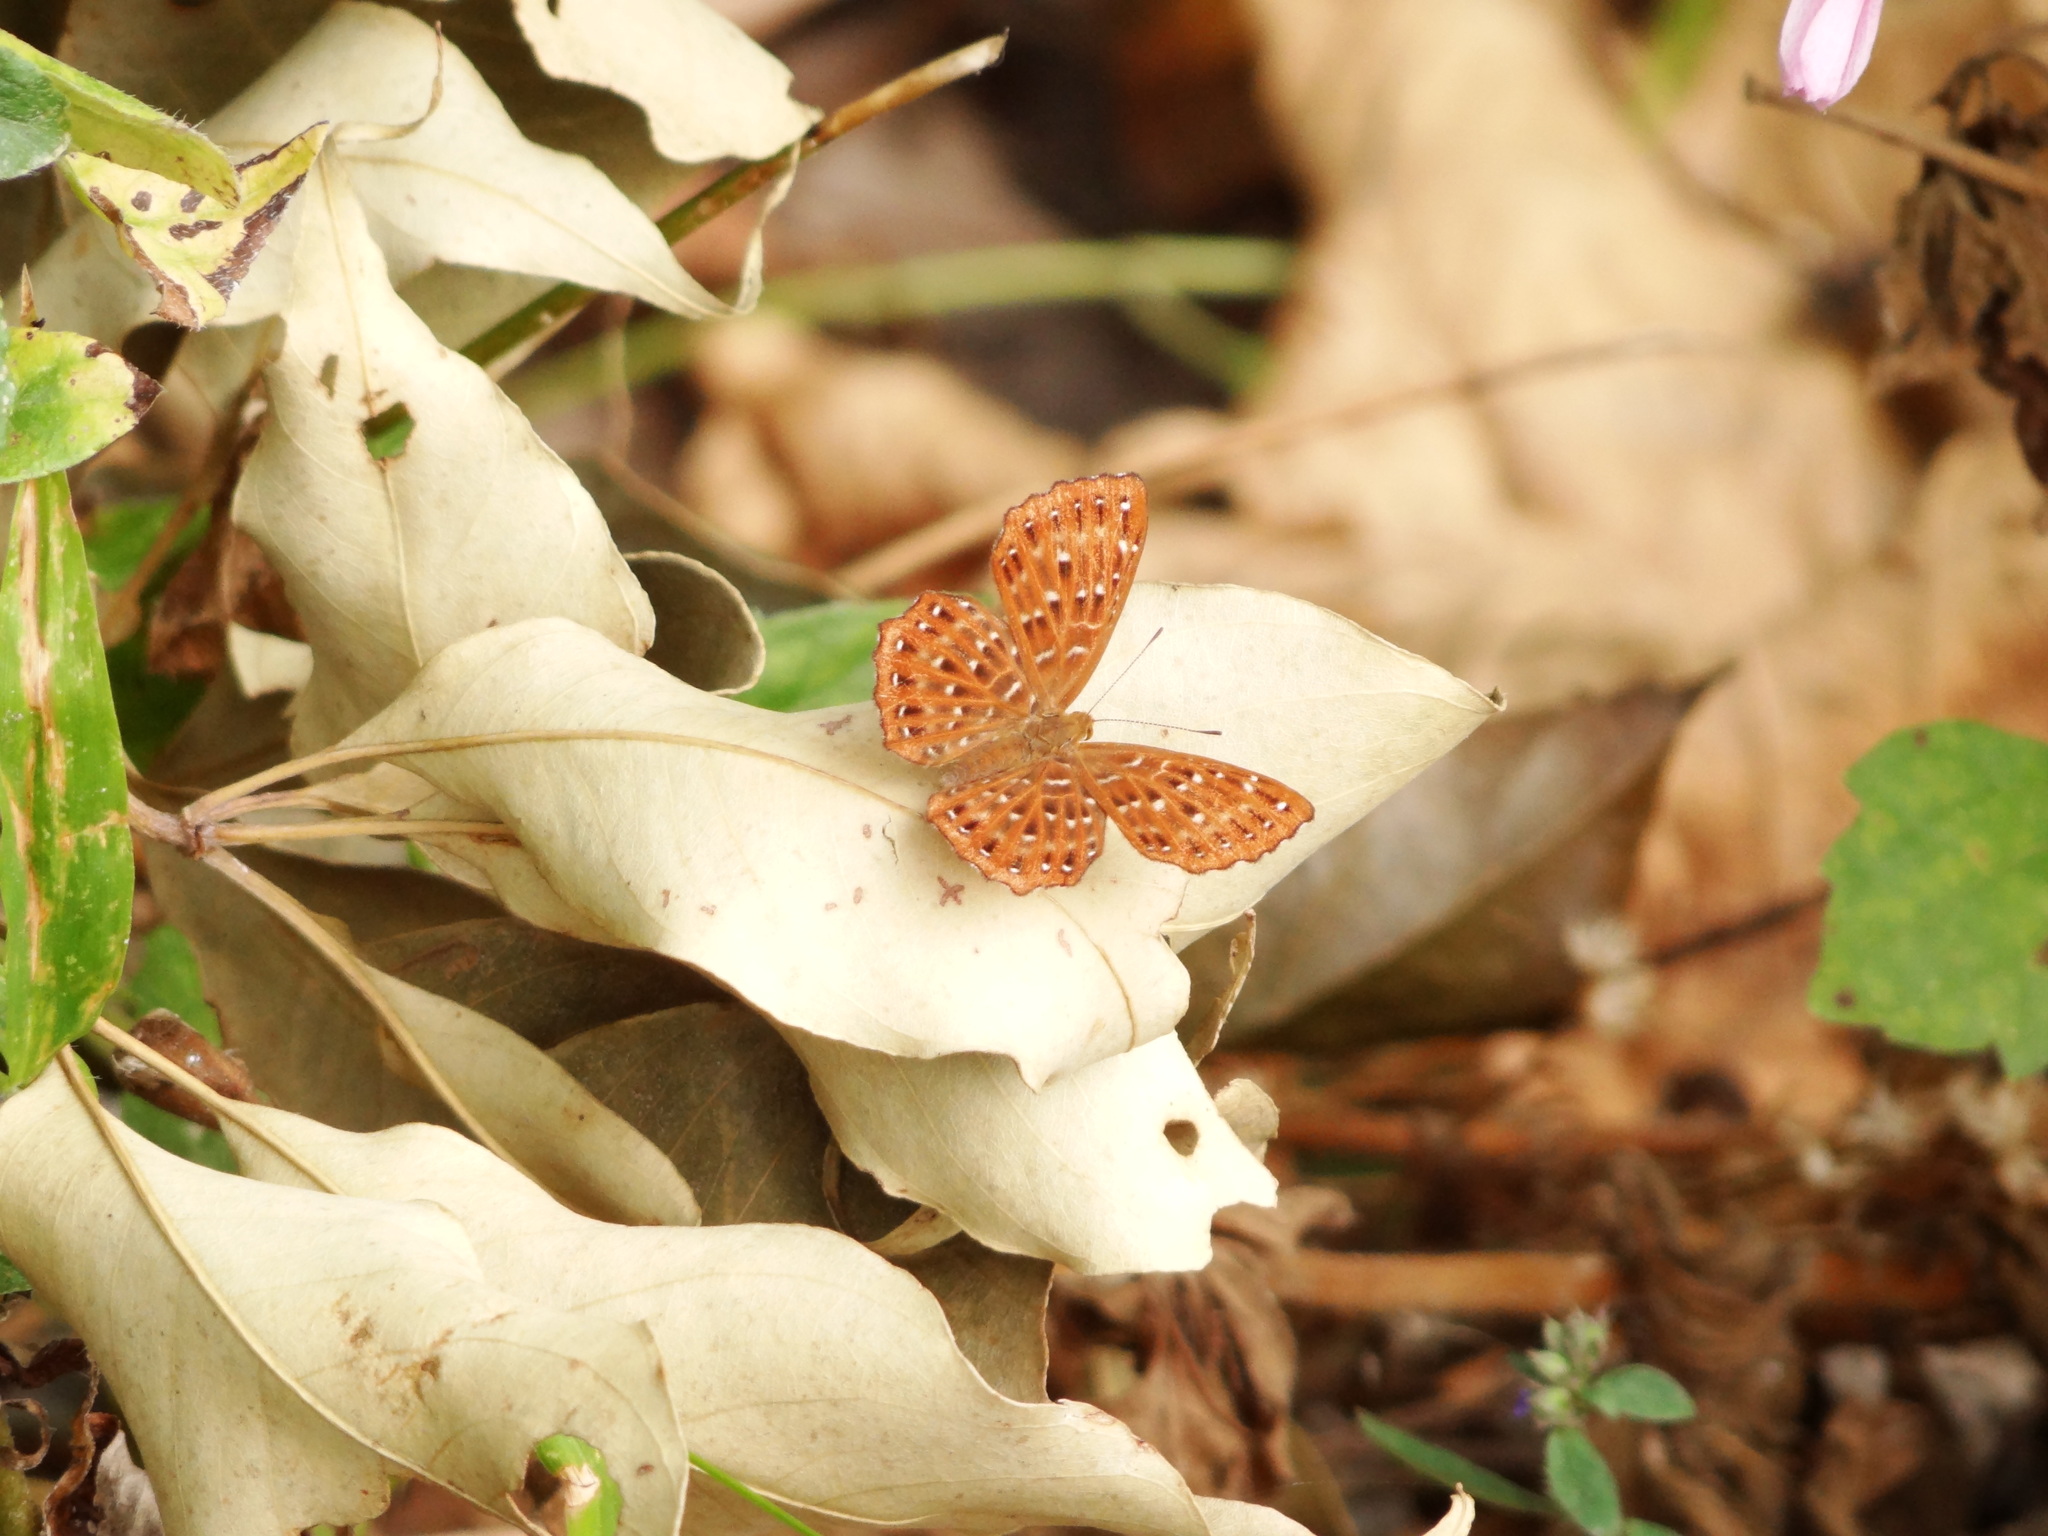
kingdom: Animalia
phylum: Arthropoda
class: Insecta
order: Lepidoptera
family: Riodinidae
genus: Zemeros
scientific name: Zemeros flegyas
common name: Punchinello
